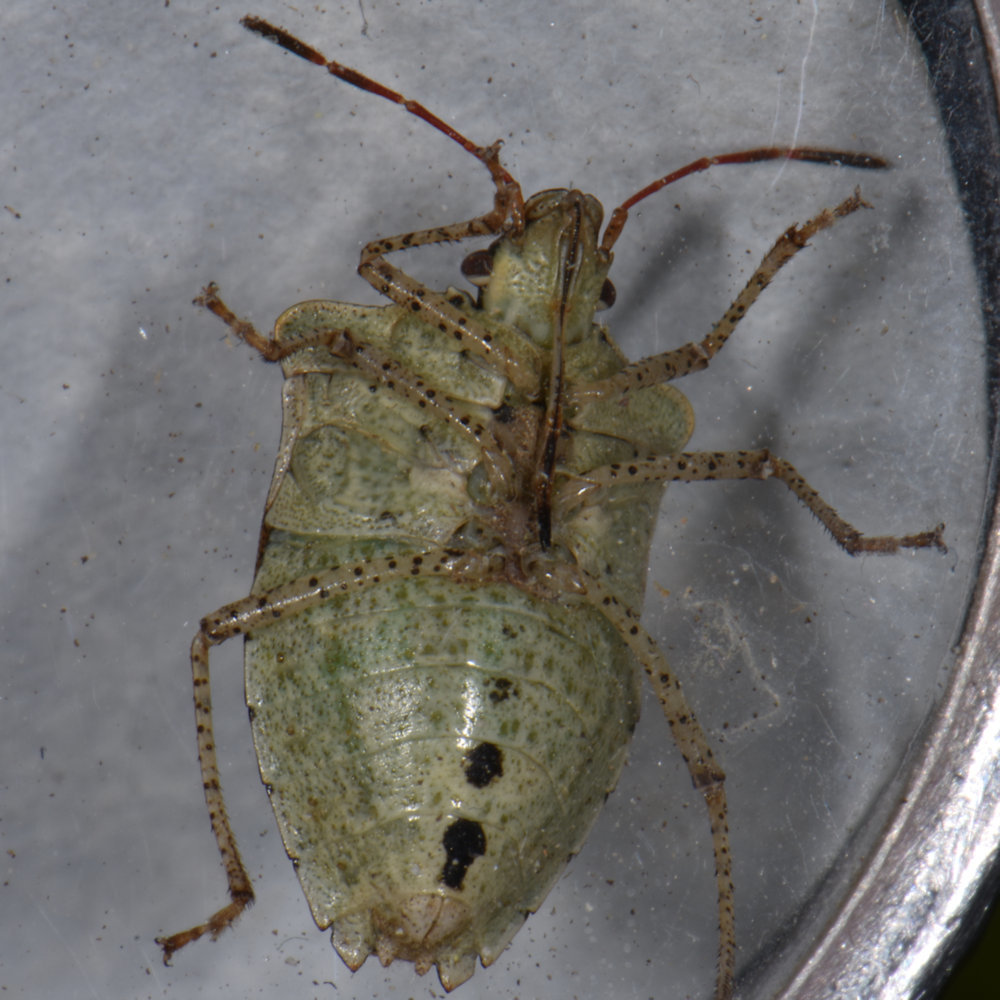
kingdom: Animalia
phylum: Arthropoda
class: Insecta
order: Hemiptera
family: Pentatomidae
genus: Euschistus
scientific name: Euschistus tristigmus
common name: Dusky stink bug
